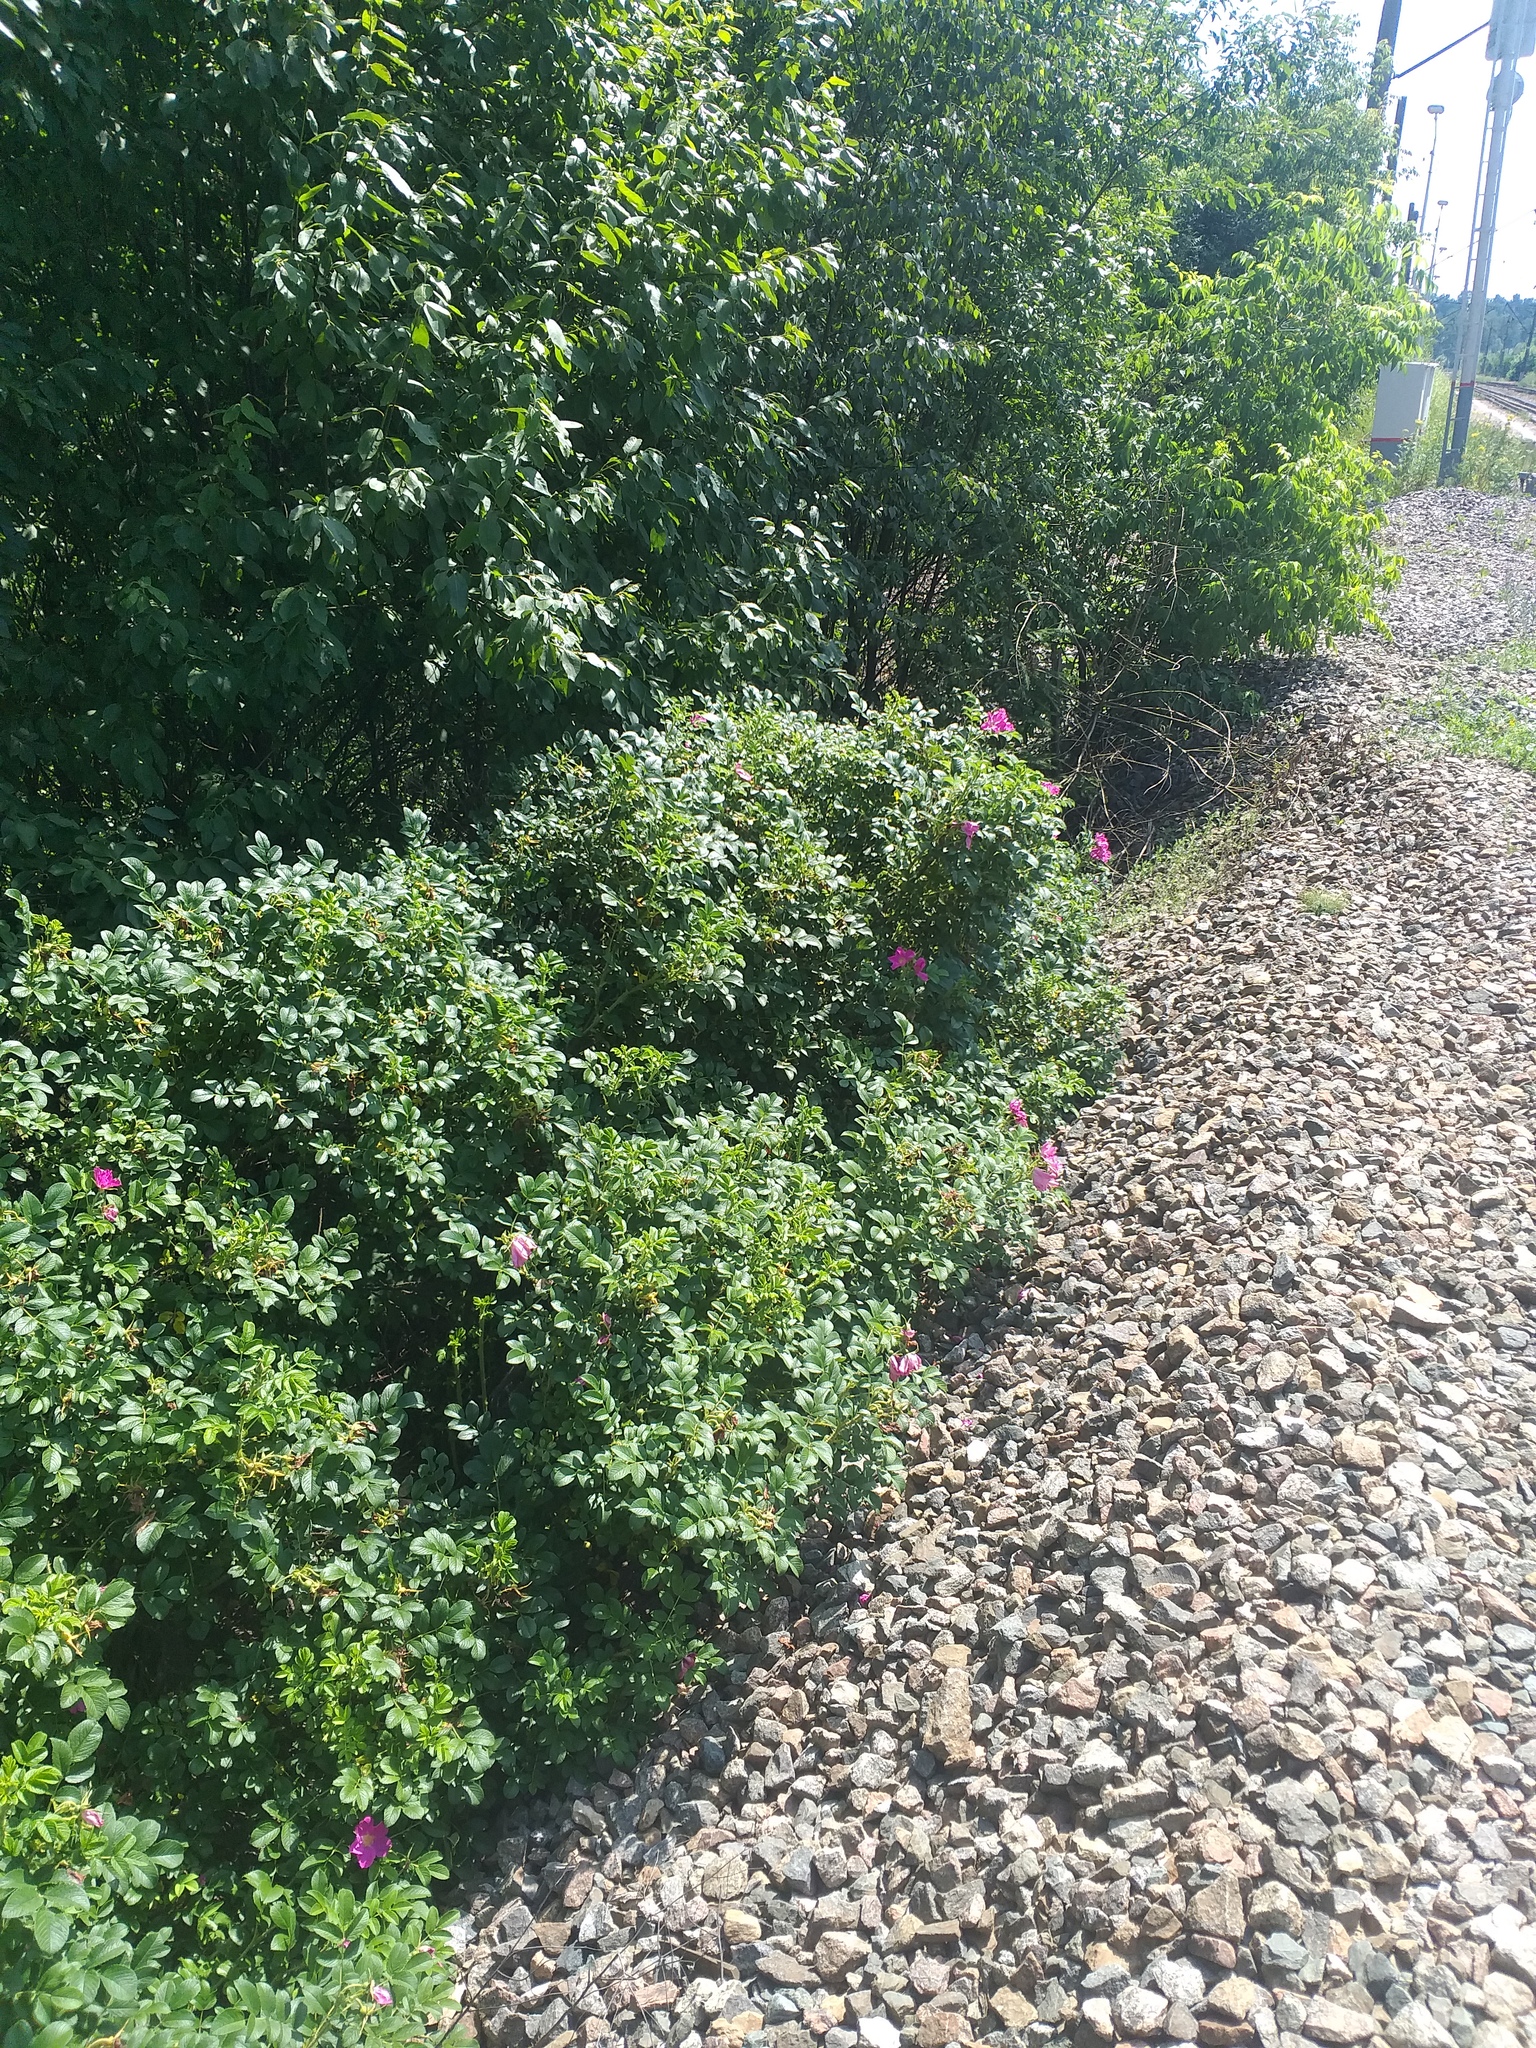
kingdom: Plantae
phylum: Tracheophyta
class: Magnoliopsida
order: Rosales
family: Rosaceae
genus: Rosa
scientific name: Rosa rugosa
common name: Japanese rose
